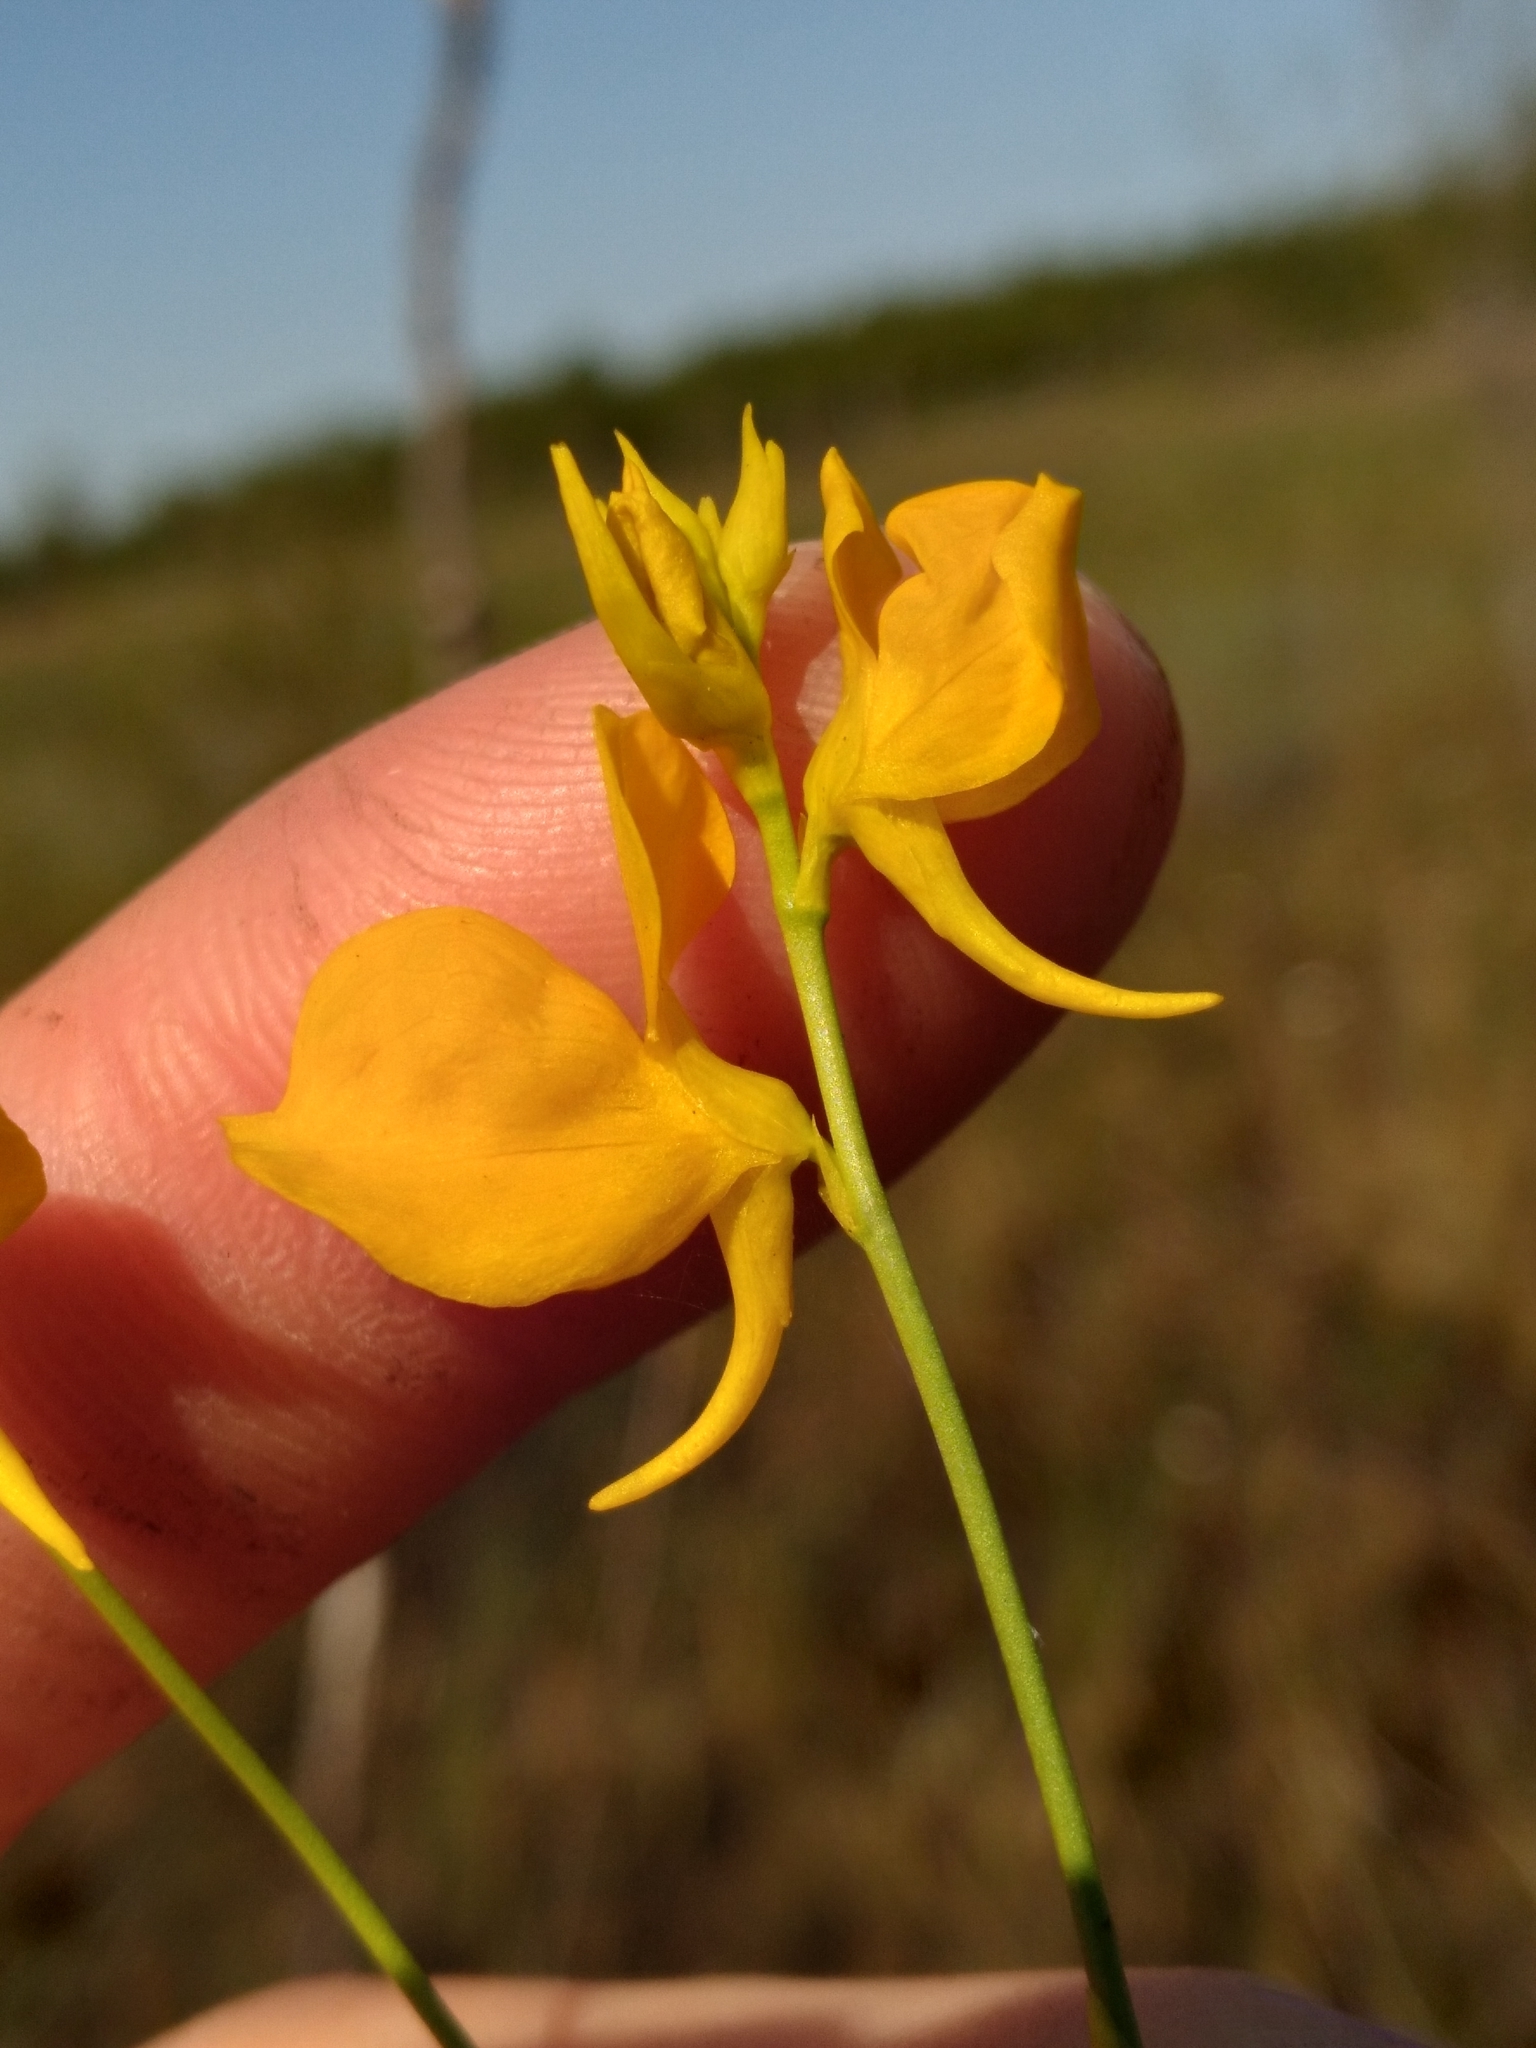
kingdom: Plantae
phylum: Tracheophyta
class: Magnoliopsida
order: Lamiales
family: Lentibulariaceae
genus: Utricularia
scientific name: Utricularia cornuta
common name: Horned bladderwort
